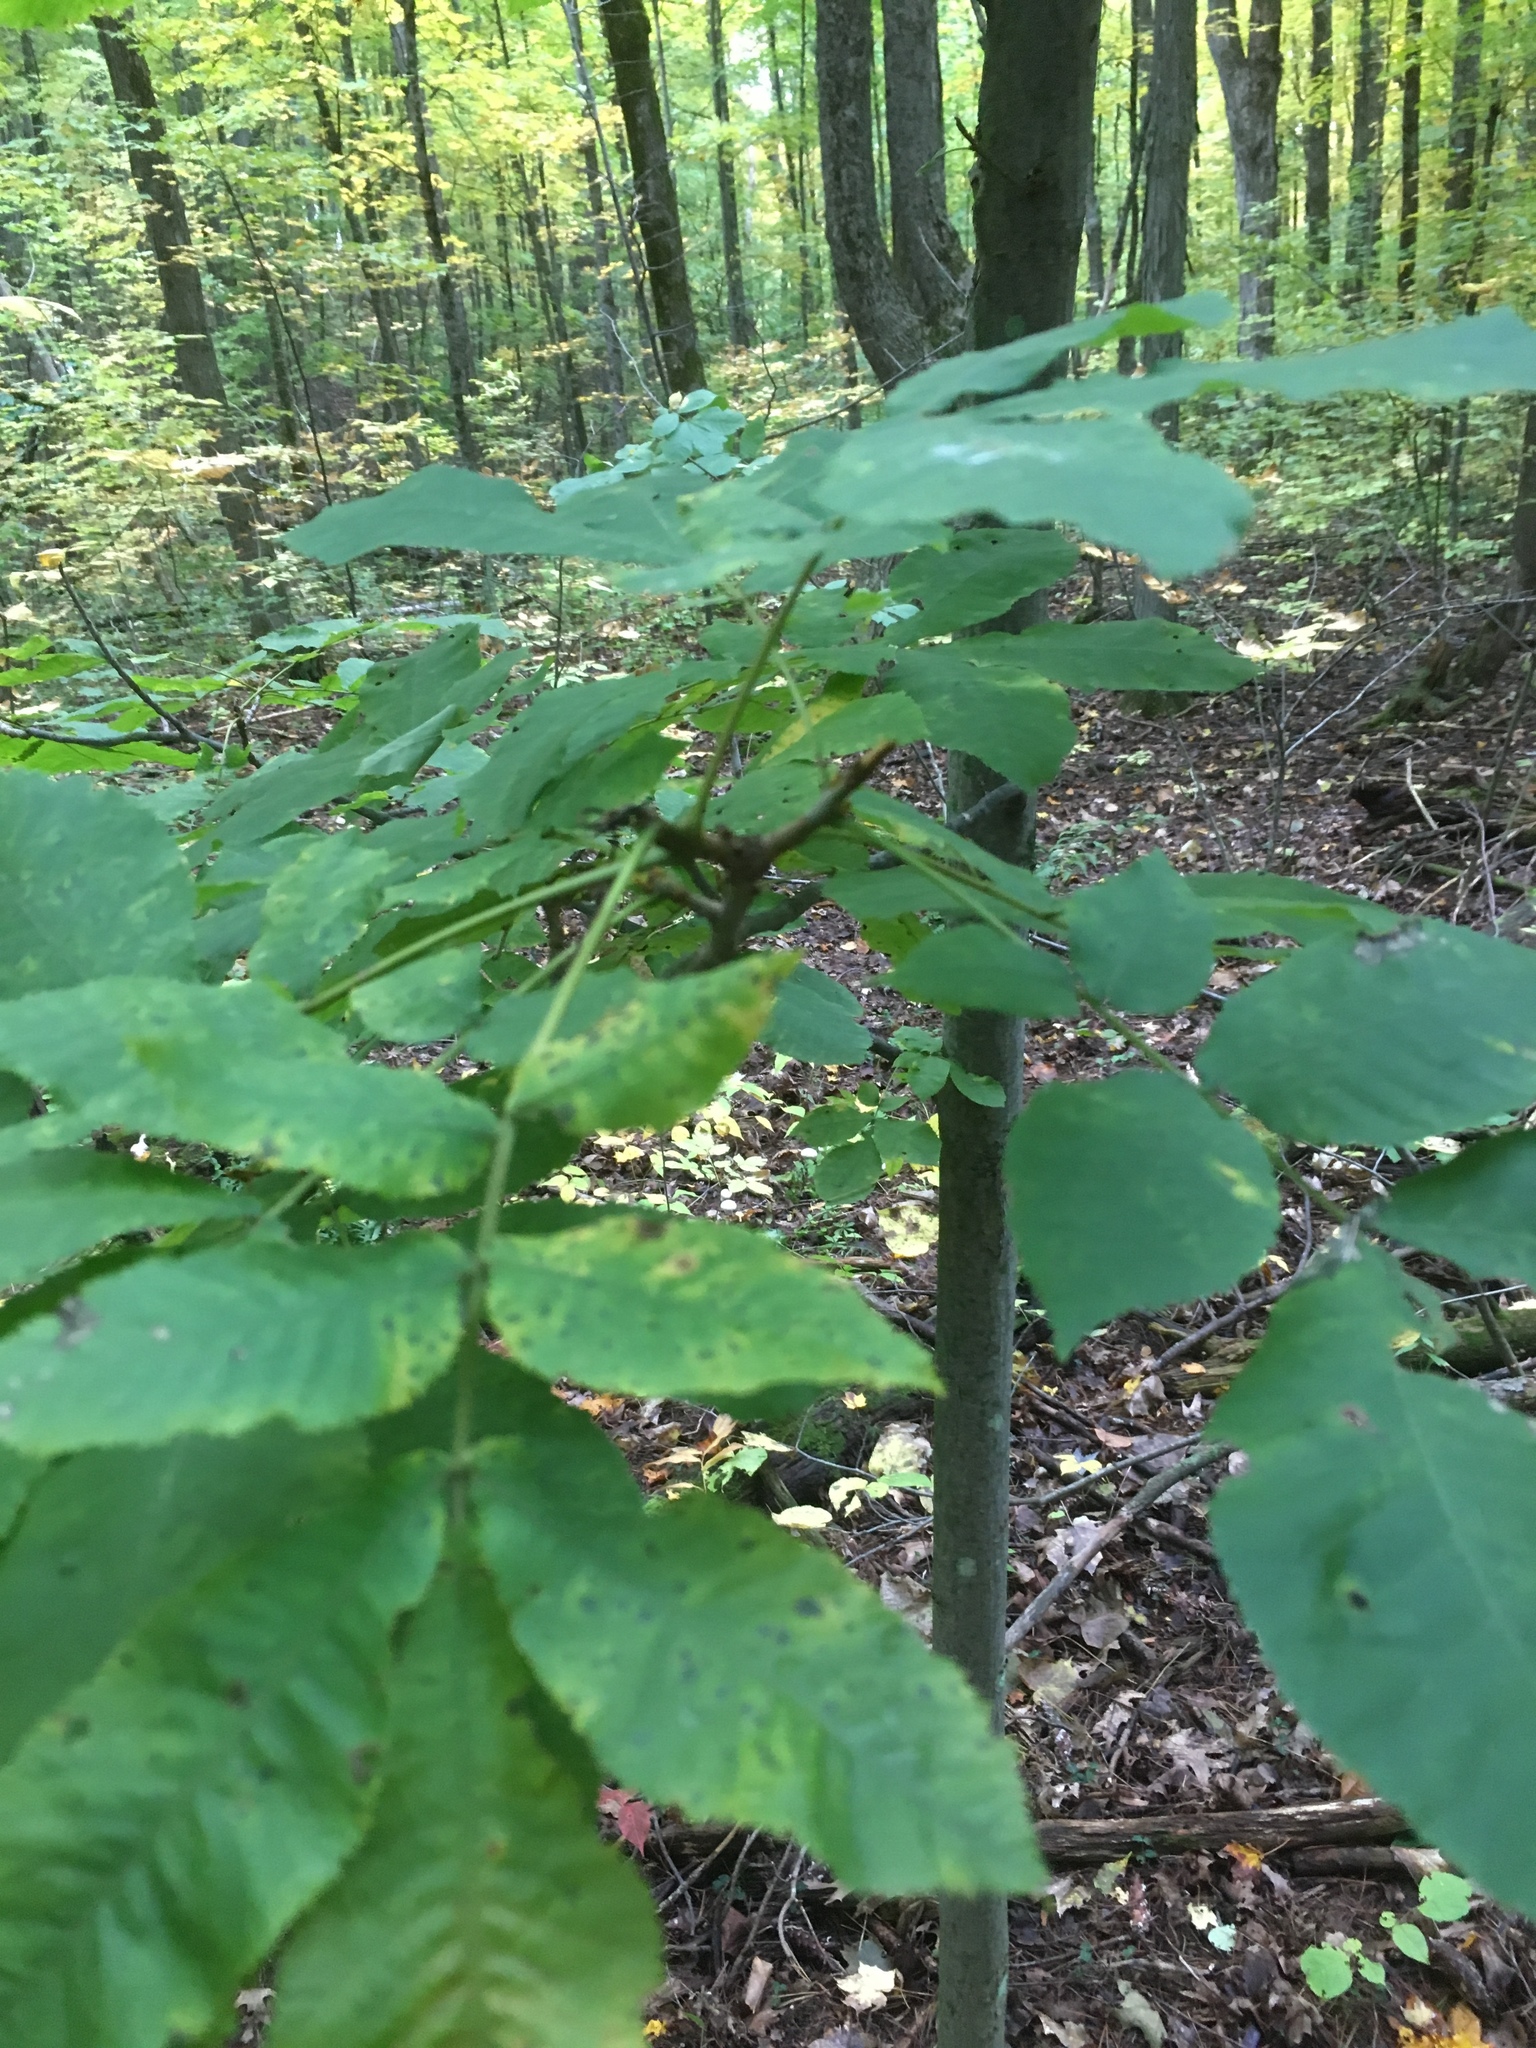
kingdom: Plantae
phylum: Tracheophyta
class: Magnoliopsida
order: Fagales
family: Juglandaceae
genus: Carya
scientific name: Carya cordiformis
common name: Bitternut hickory
